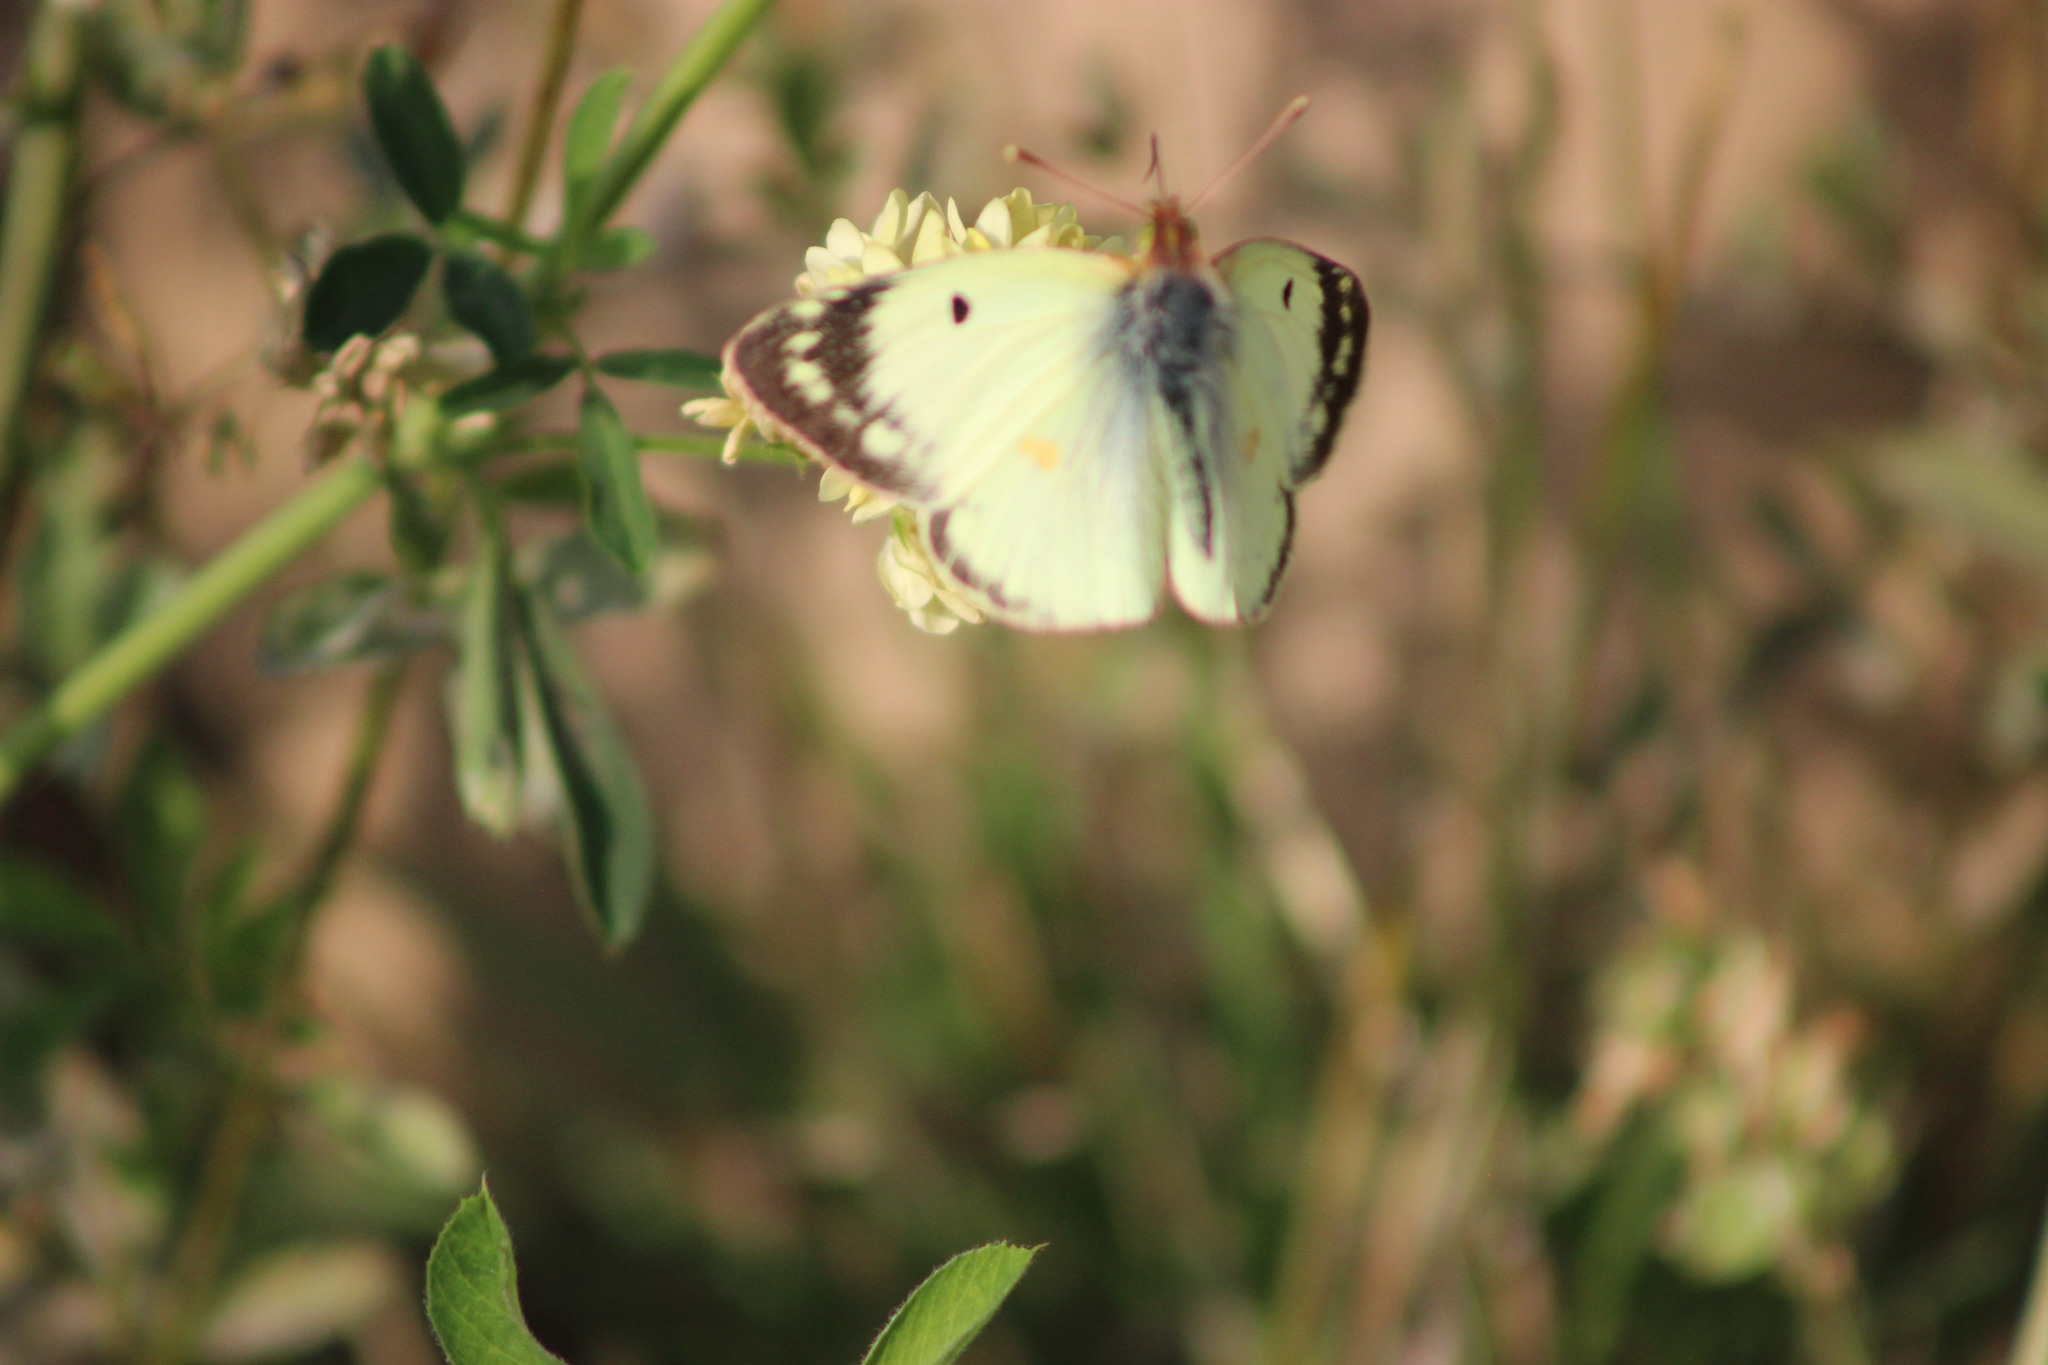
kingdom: Animalia
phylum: Arthropoda
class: Insecta
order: Lepidoptera
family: Pieridae
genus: Colias
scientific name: Colias hyale
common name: Pale clouded yellow
